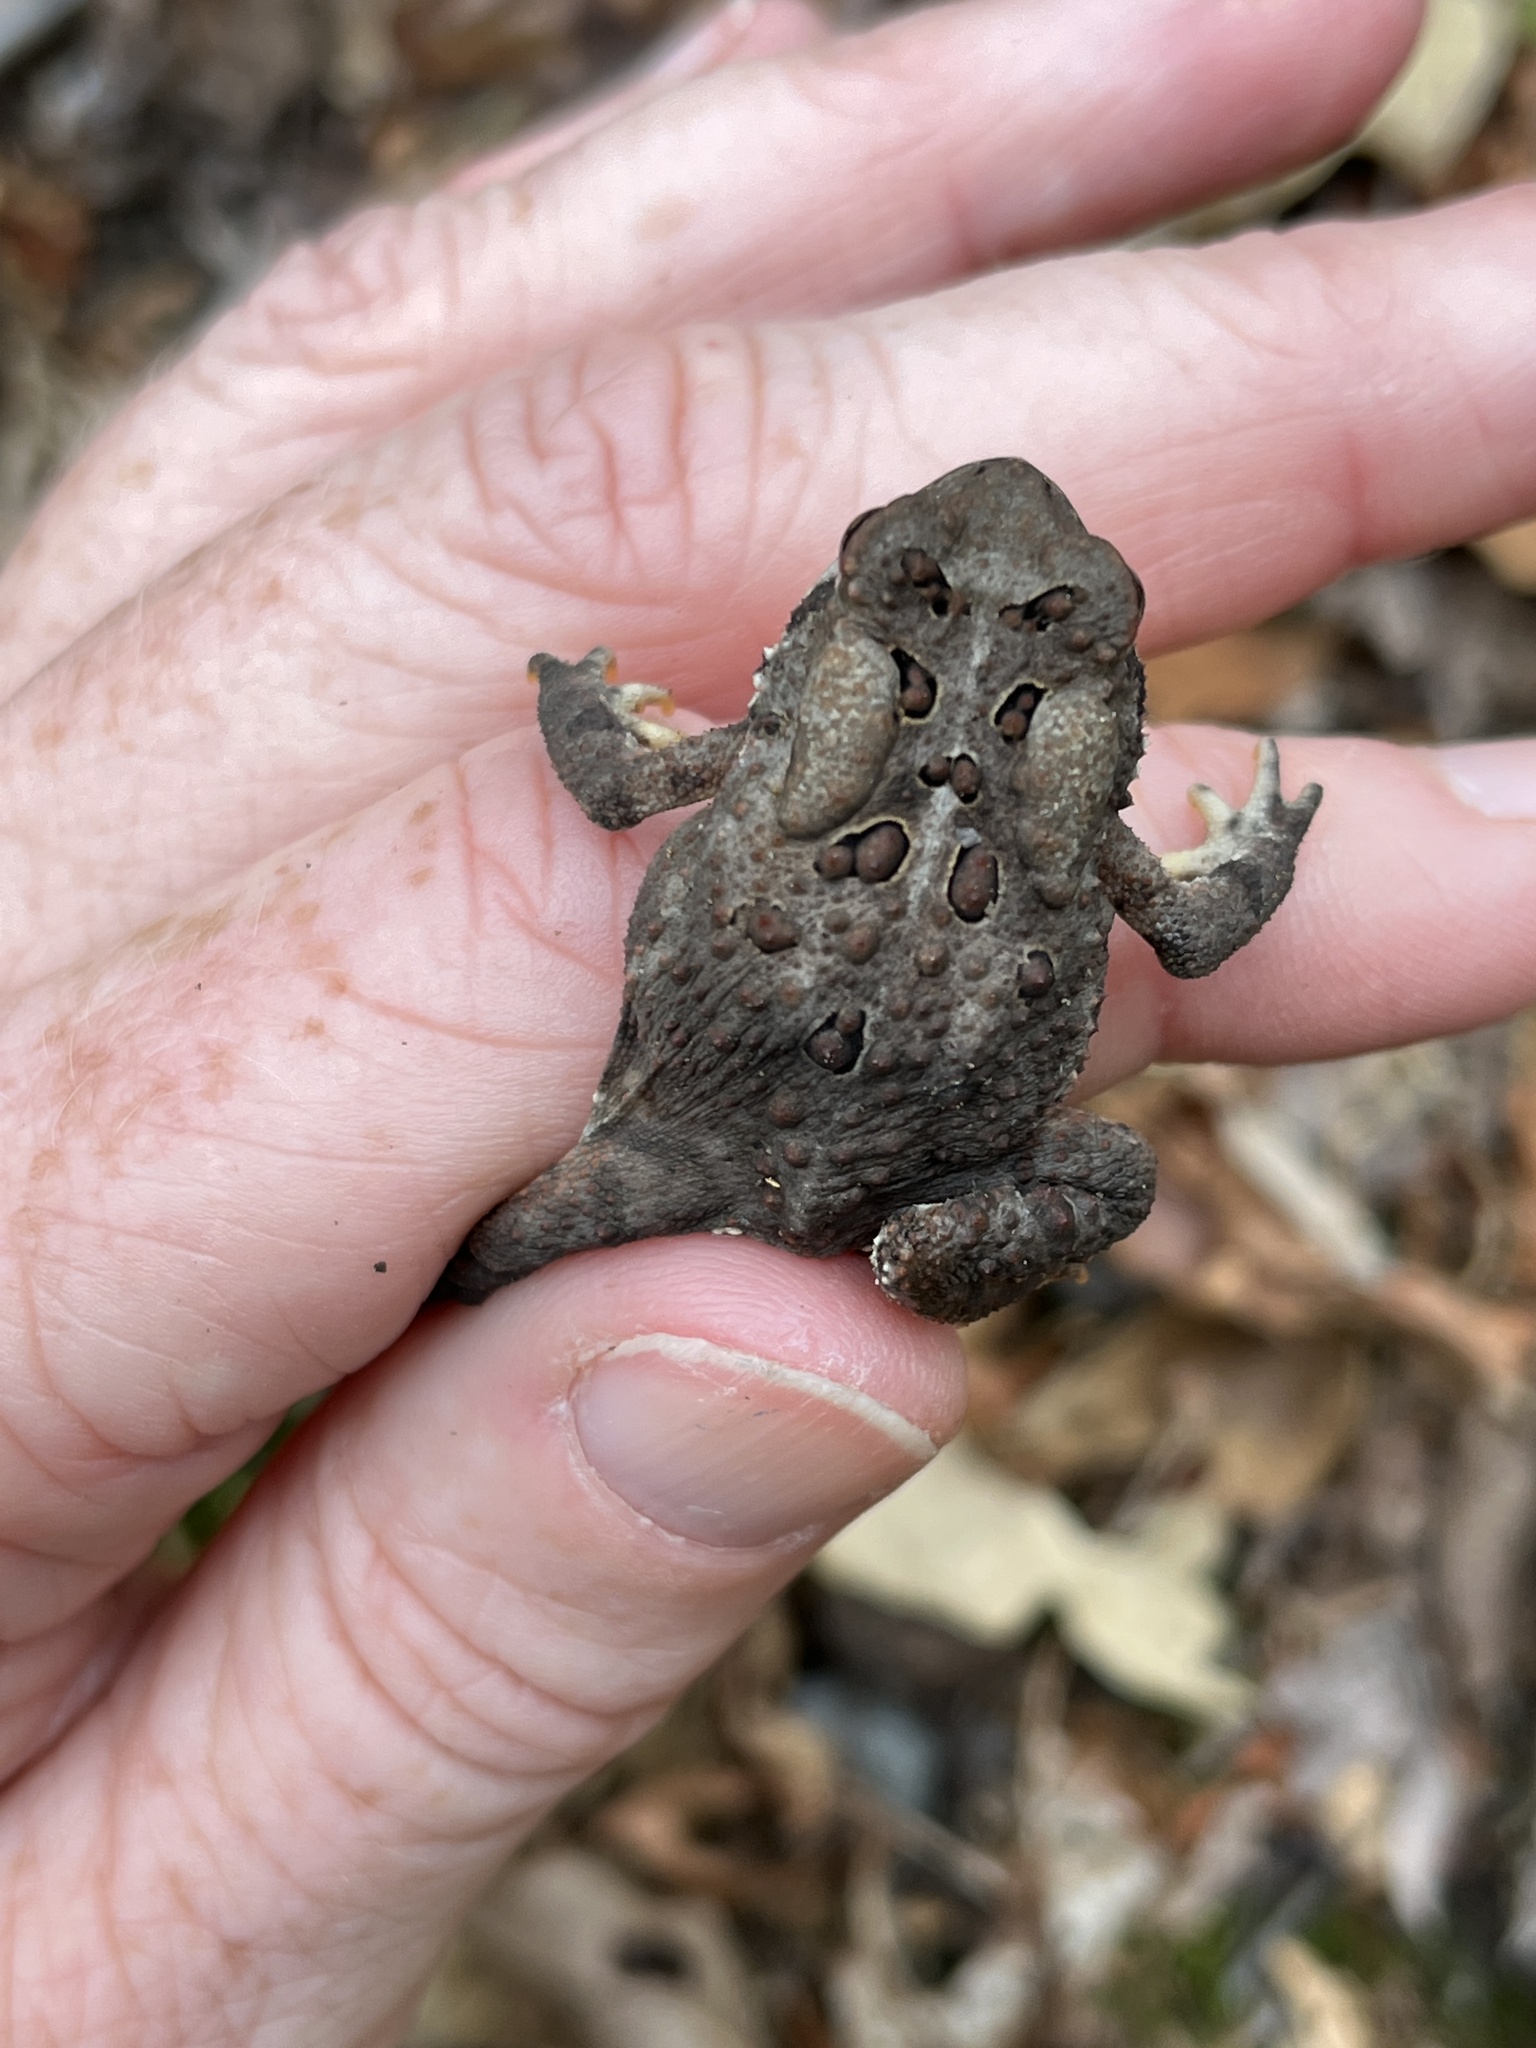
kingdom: Animalia
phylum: Chordata
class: Amphibia
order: Anura
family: Bufonidae
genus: Anaxyrus
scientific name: Anaxyrus americanus
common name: American toad
